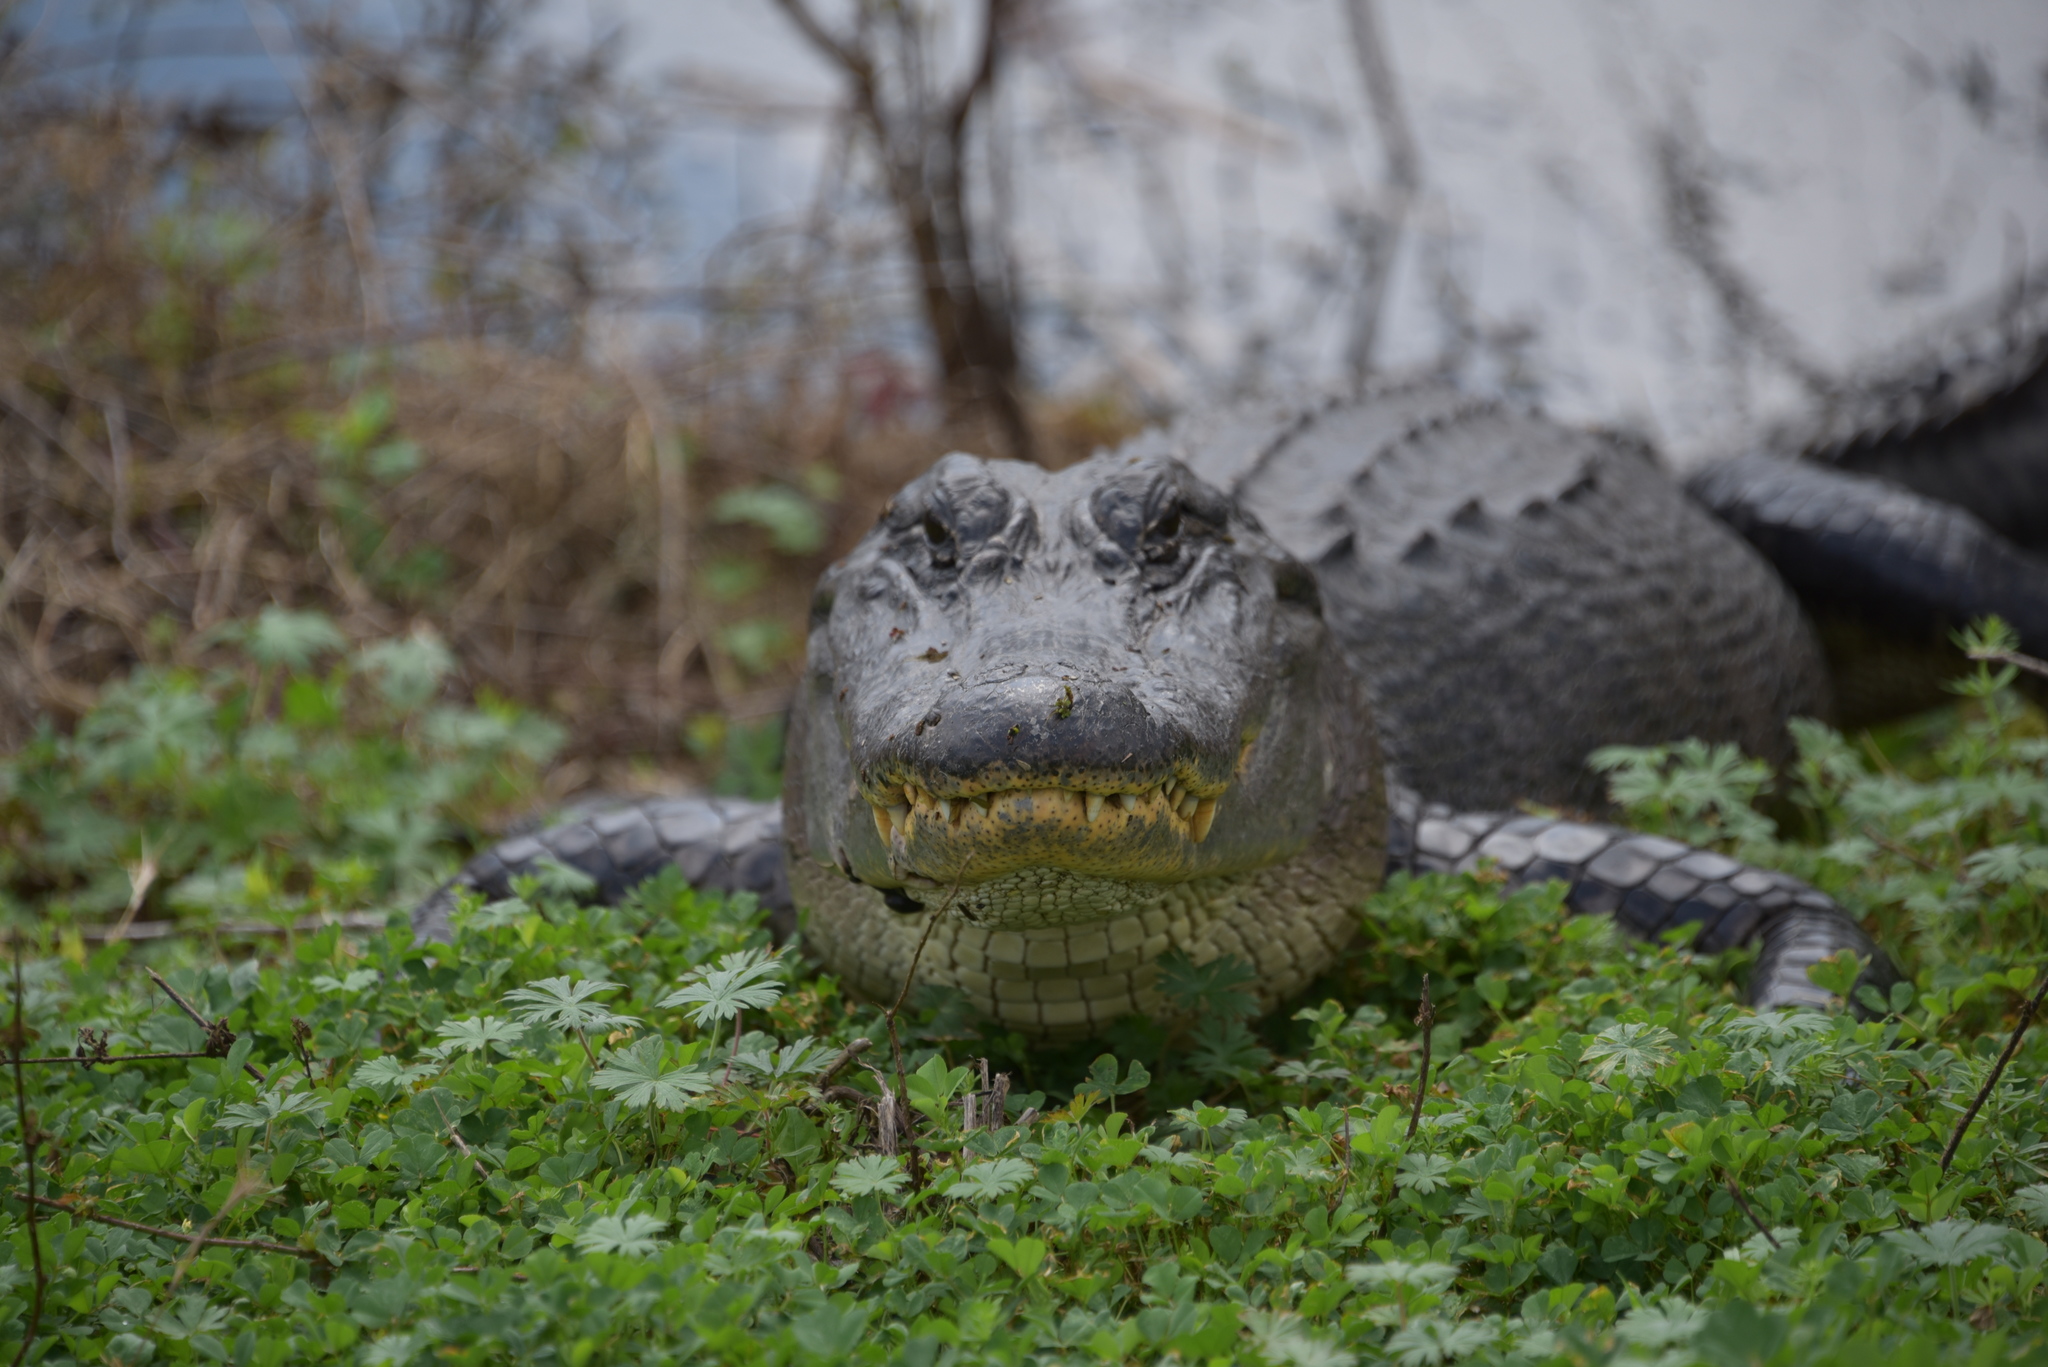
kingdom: Animalia
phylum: Chordata
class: Crocodylia
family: Alligatoridae
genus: Alligator
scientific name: Alligator mississippiensis
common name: American alligator
